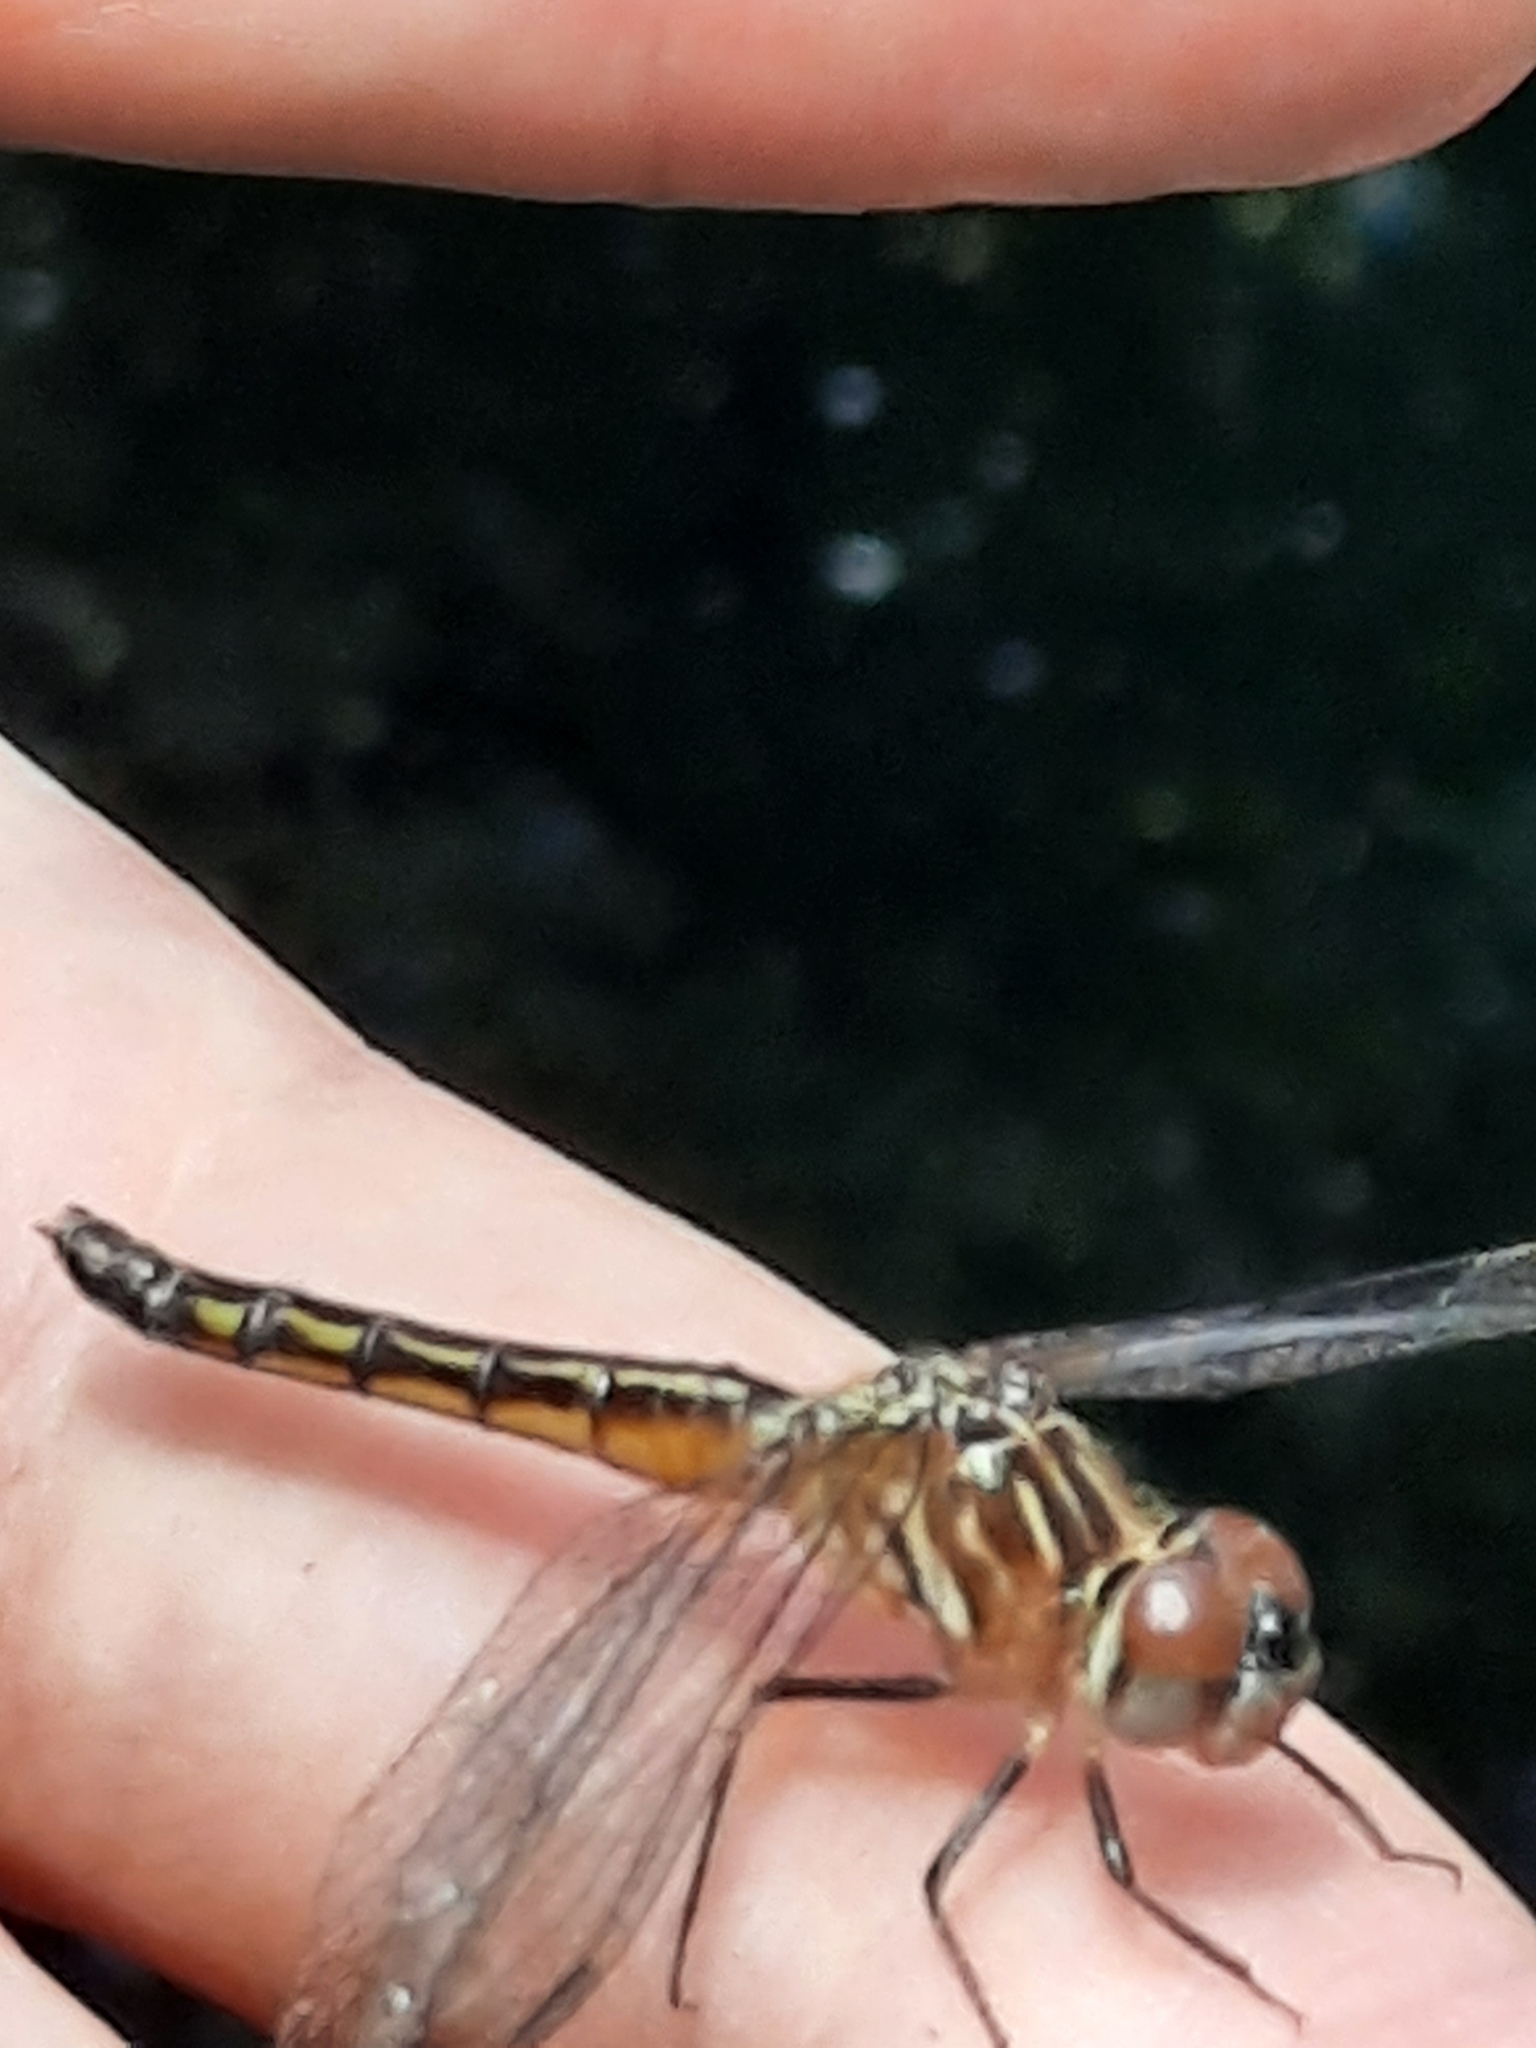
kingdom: Animalia
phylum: Arthropoda
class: Insecta
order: Odonata
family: Libellulidae
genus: Pachydiplax
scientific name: Pachydiplax longipennis
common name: Blue dasher
